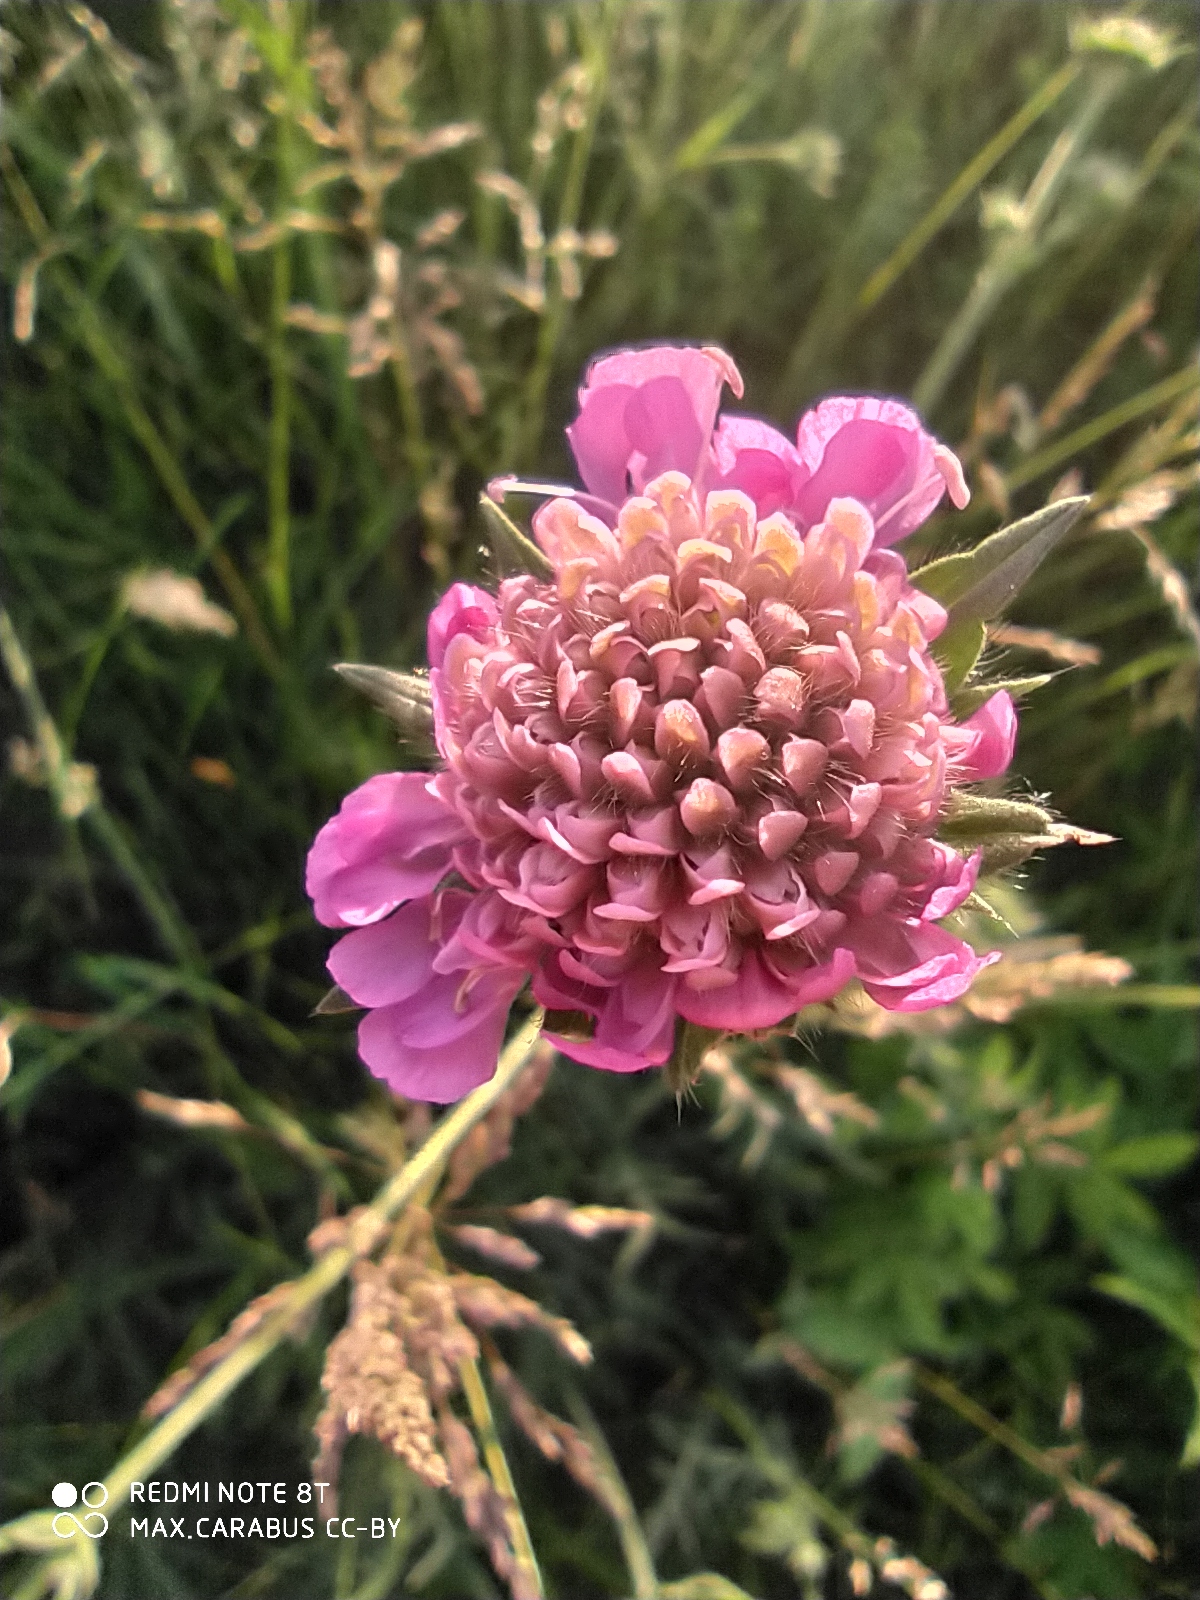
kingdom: Plantae
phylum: Tracheophyta
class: Magnoliopsida
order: Dipsacales
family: Caprifoliaceae
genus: Knautia
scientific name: Knautia arvensis
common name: Field scabiosa
